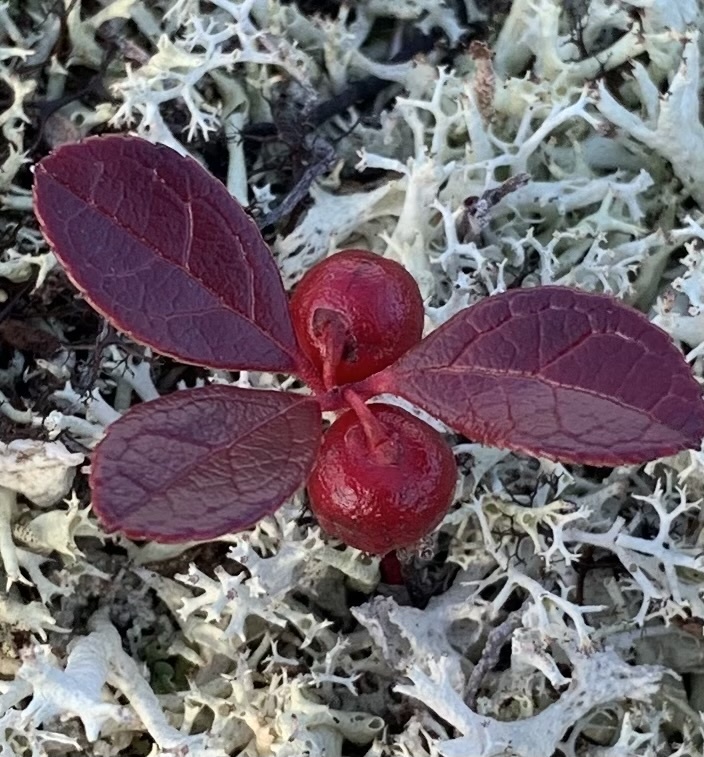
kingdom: Plantae
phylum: Tracheophyta
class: Magnoliopsida
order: Ericales
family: Ericaceae
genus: Gaultheria
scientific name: Gaultheria procumbens
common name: Checkerberry
